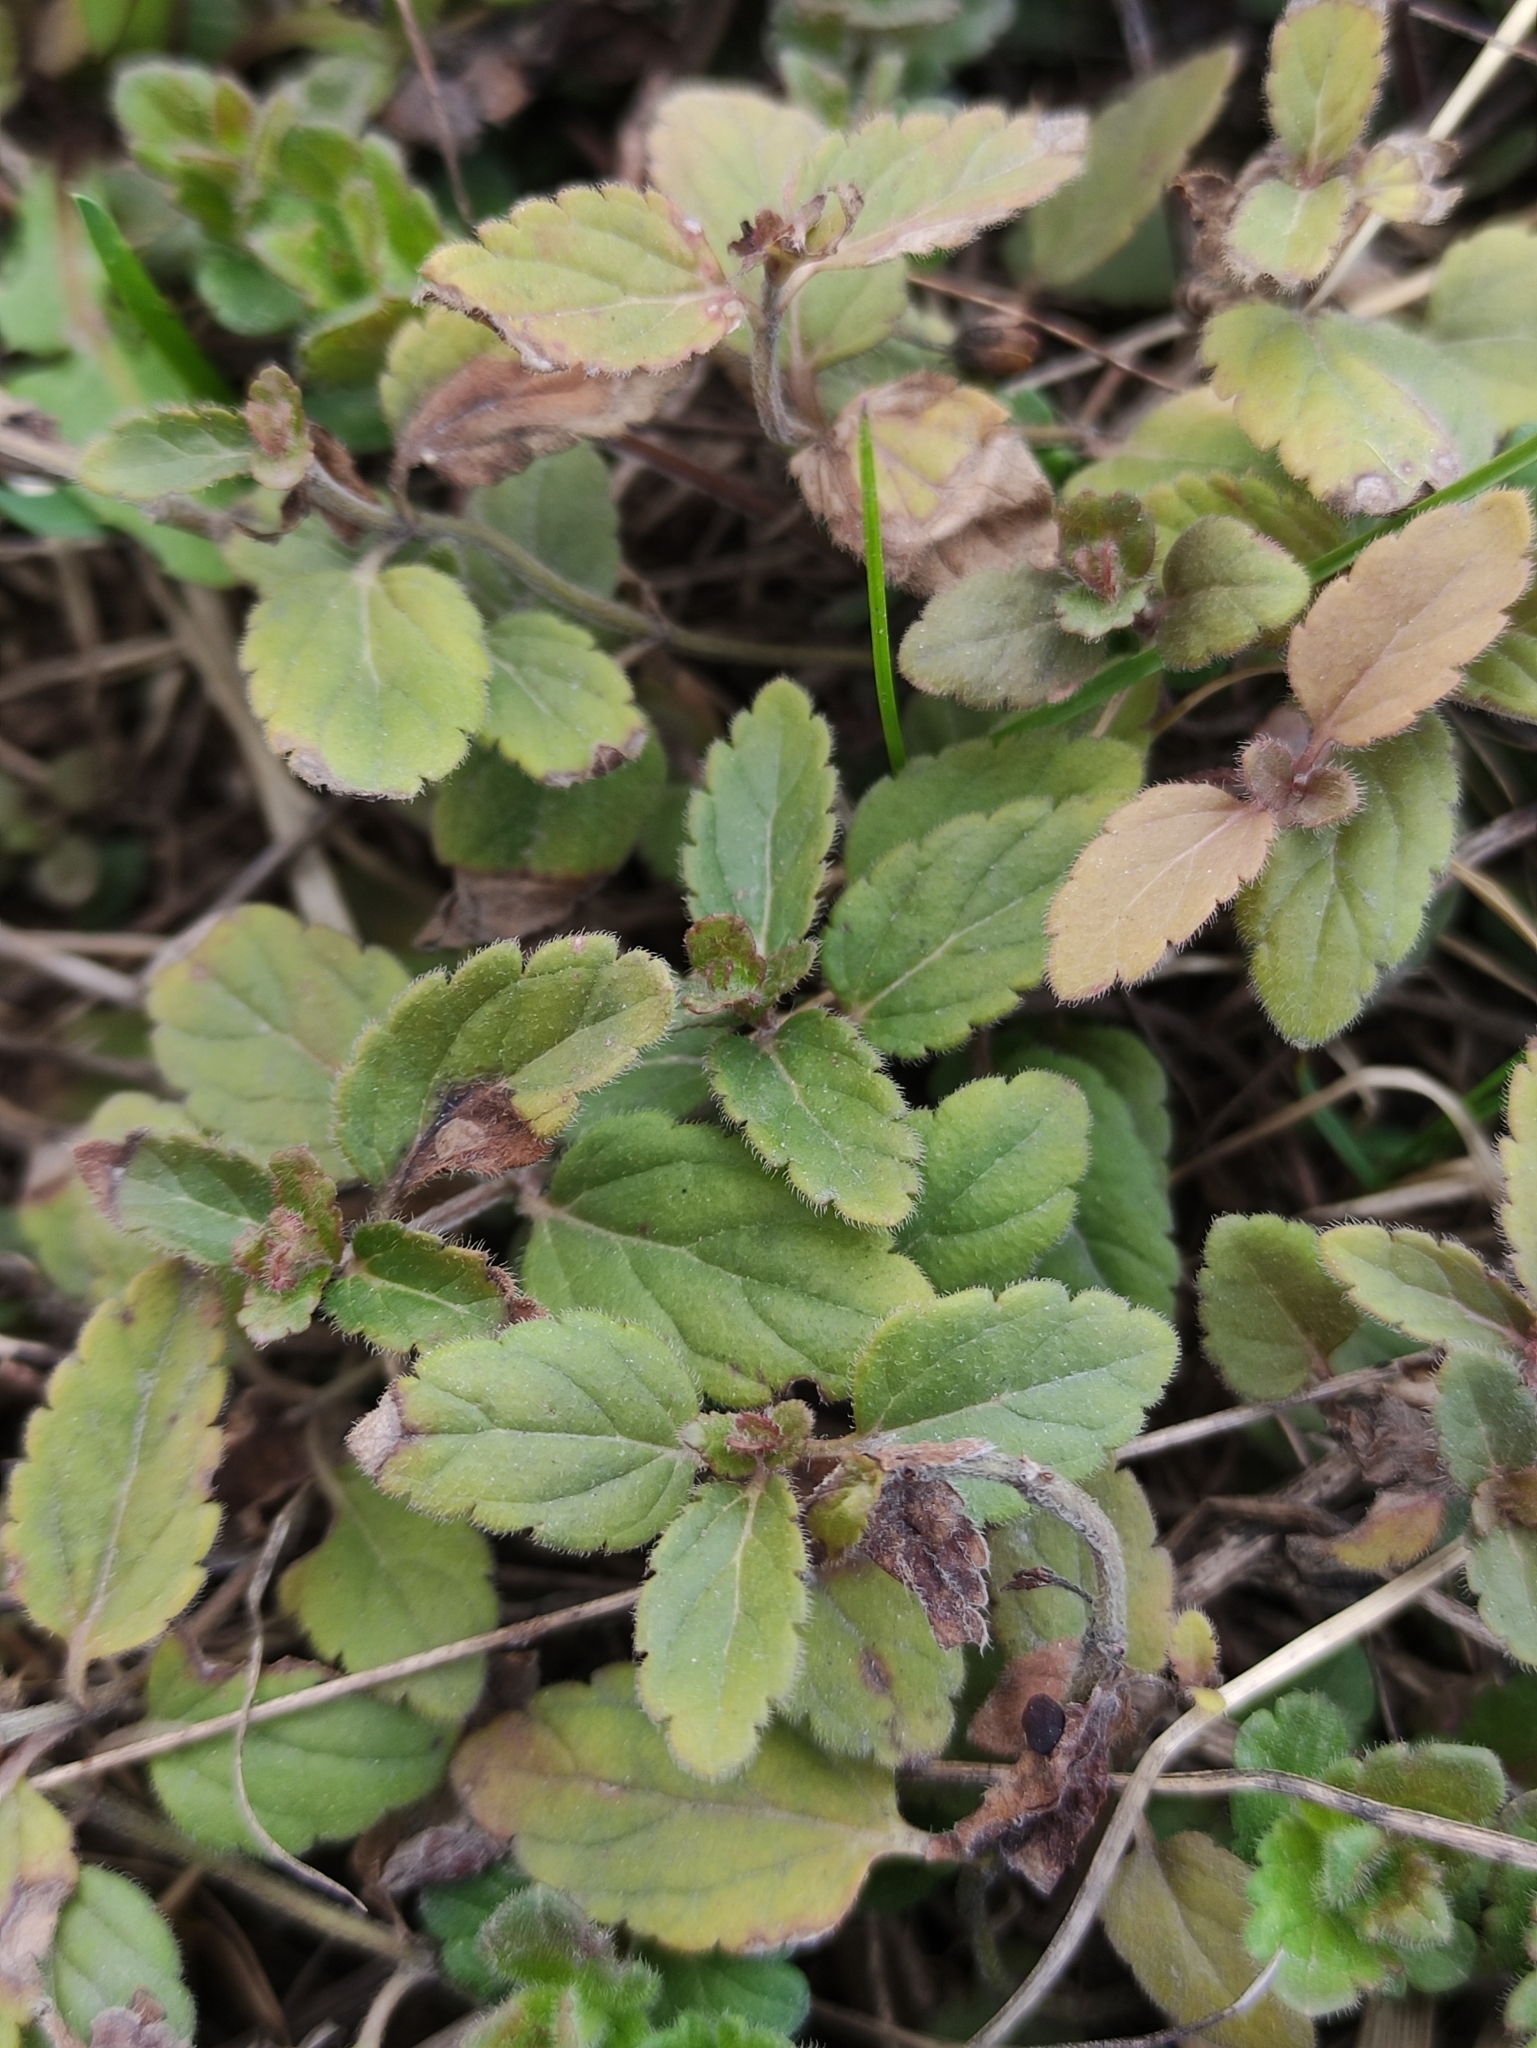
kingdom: Plantae
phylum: Tracheophyta
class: Magnoliopsida
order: Lamiales
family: Plantaginaceae
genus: Veronica
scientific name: Veronica chamaedrys
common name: Germander speedwell
